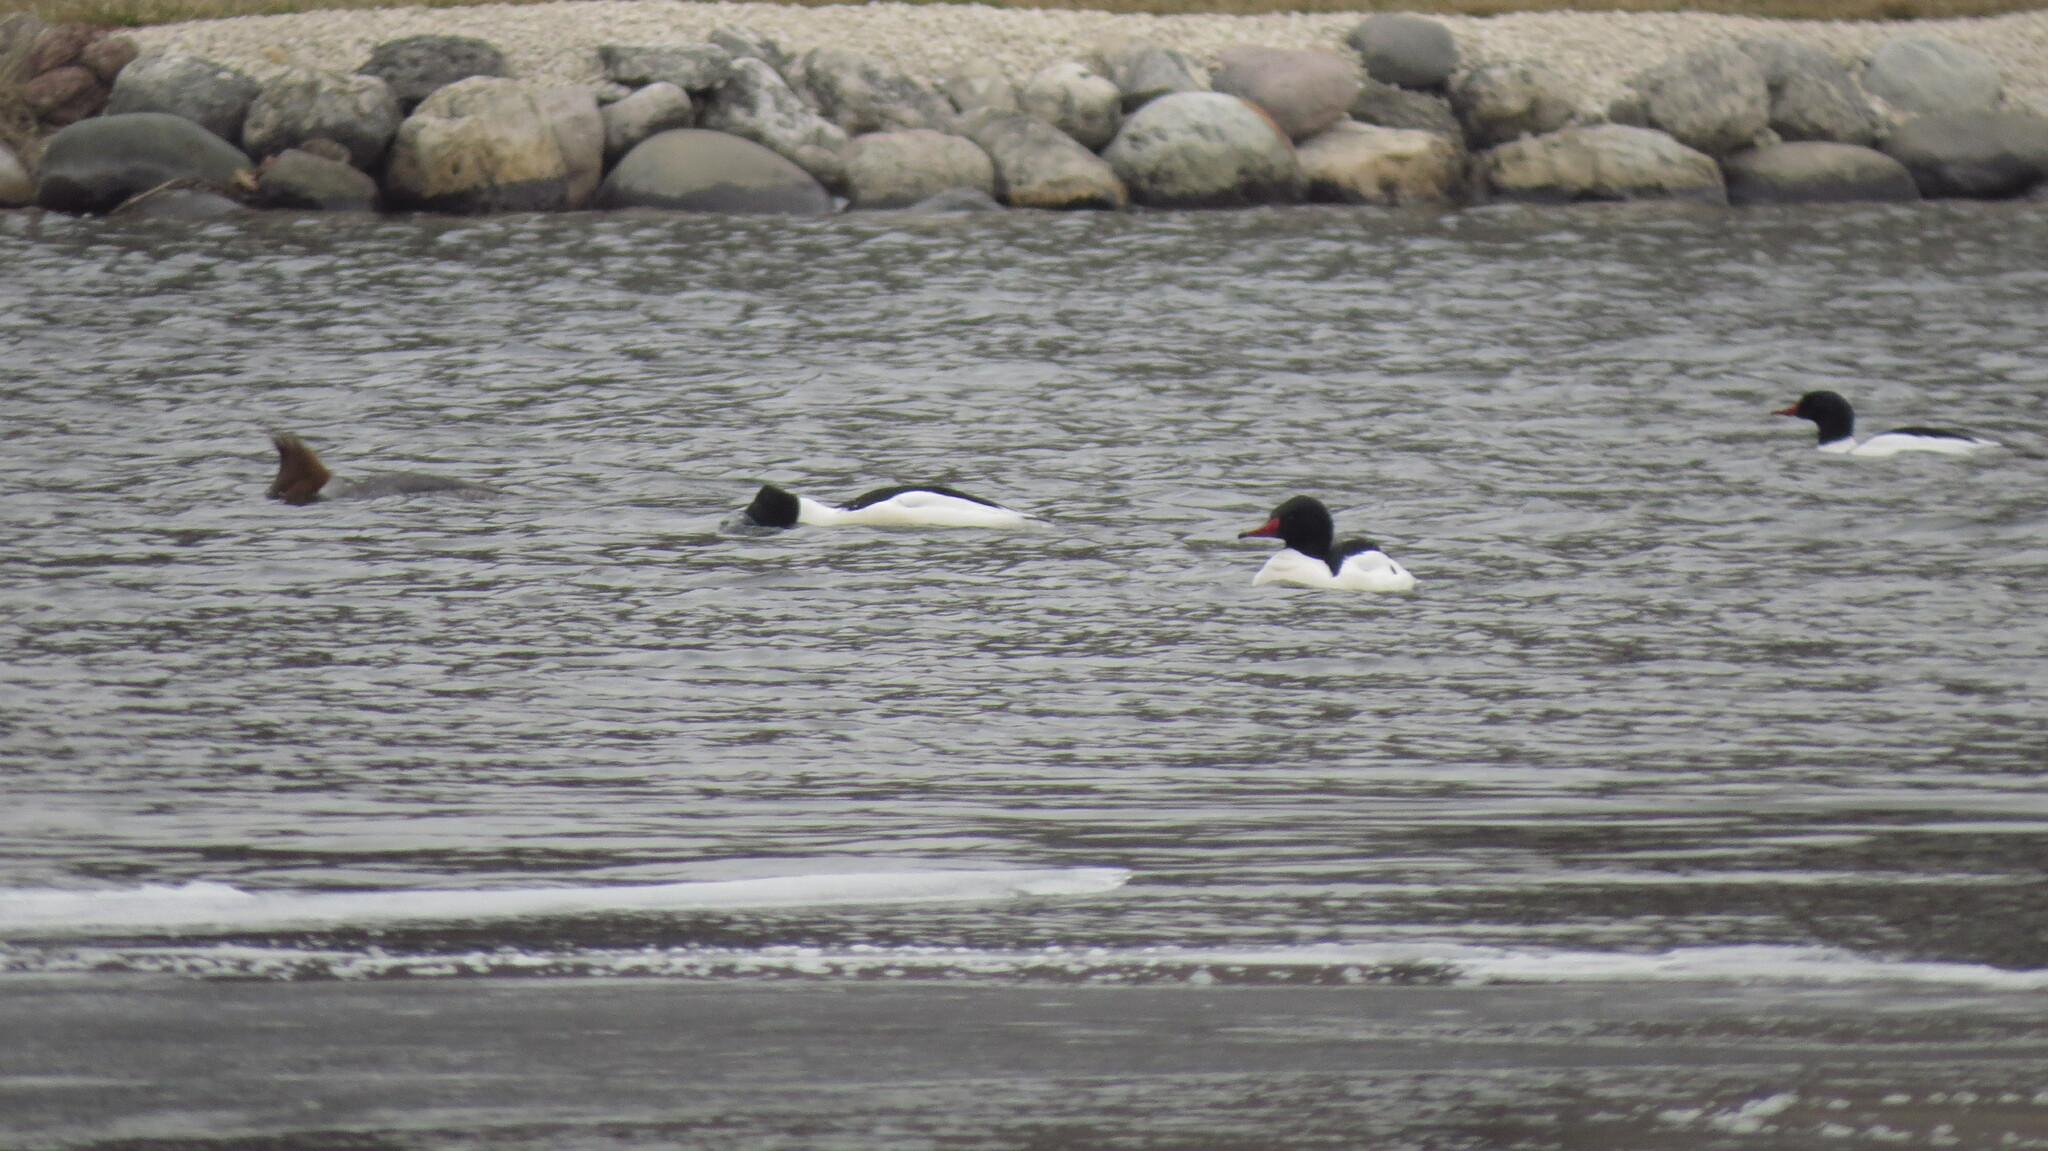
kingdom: Animalia
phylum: Chordata
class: Aves
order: Anseriformes
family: Anatidae
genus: Mergus
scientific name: Mergus merganser
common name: Common merganser
